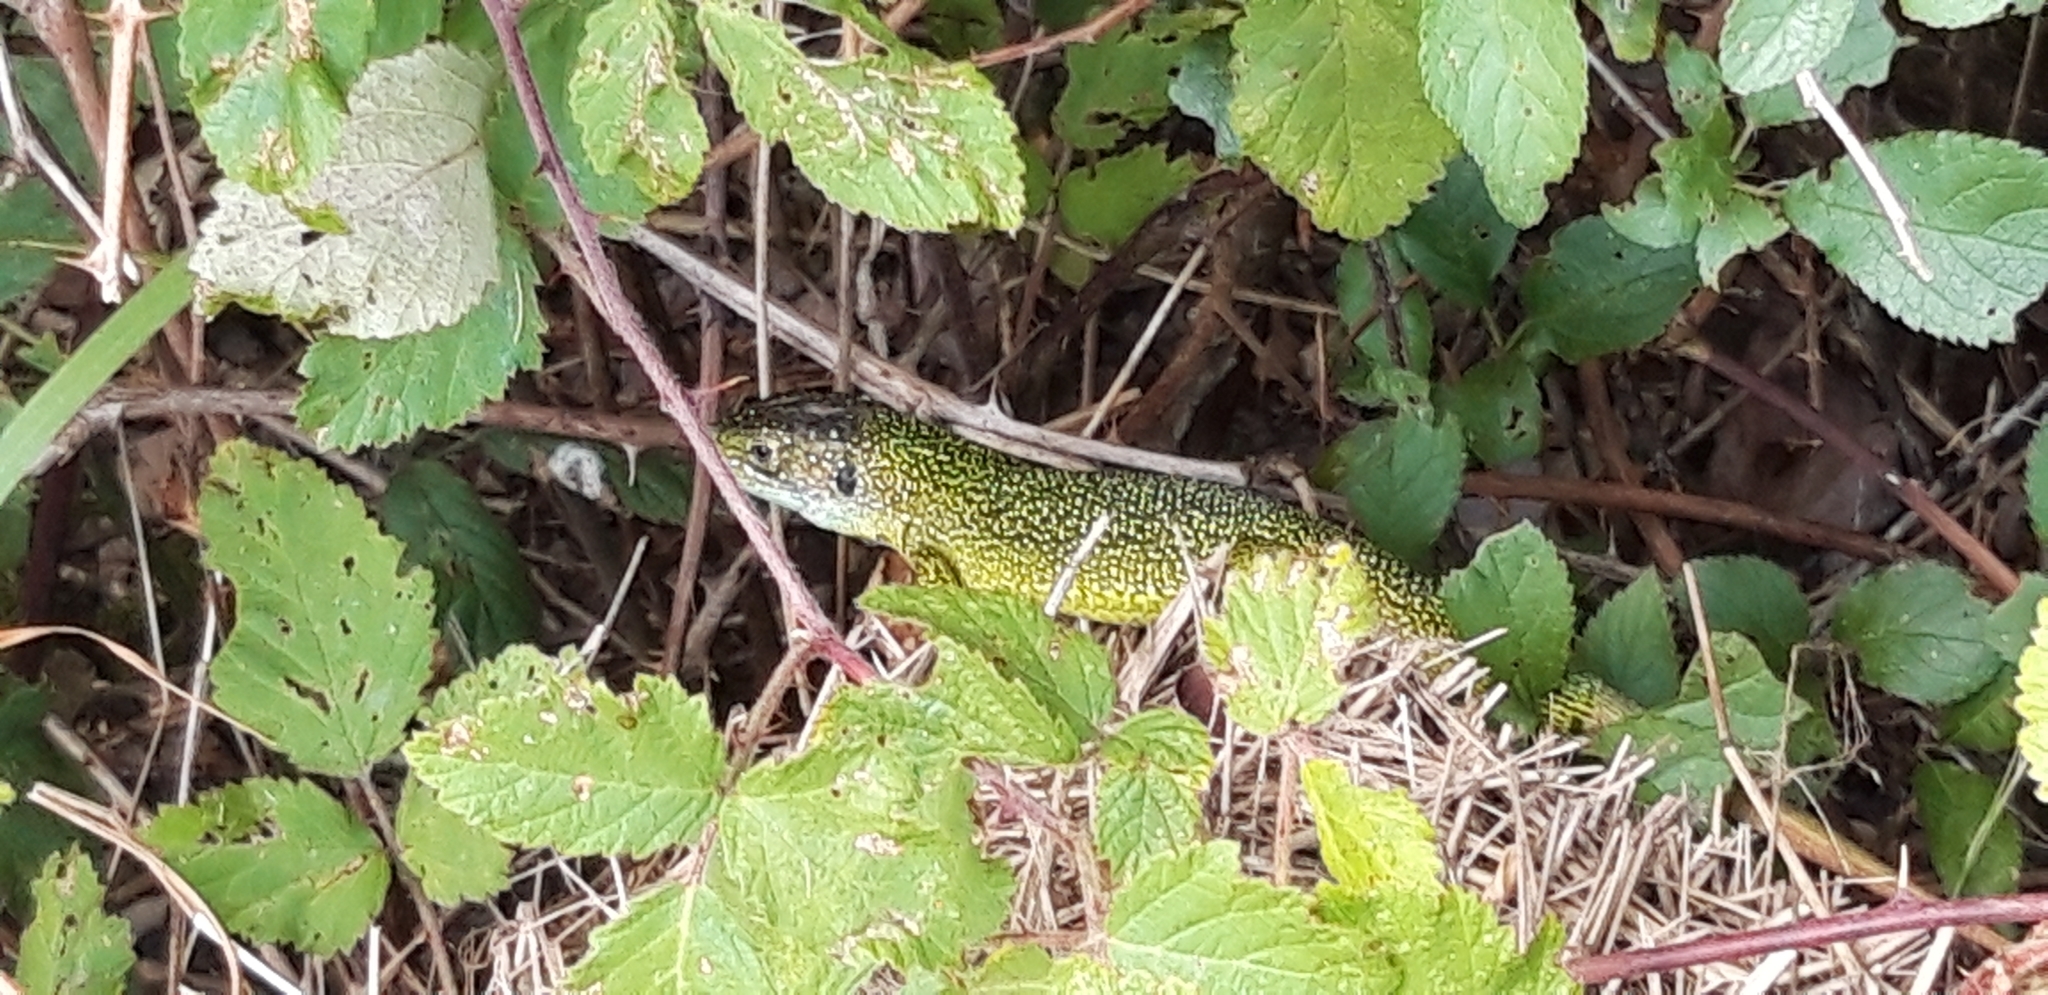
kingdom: Animalia
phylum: Chordata
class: Squamata
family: Lacertidae
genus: Lacerta
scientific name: Lacerta bilineata
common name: Western green lizard
